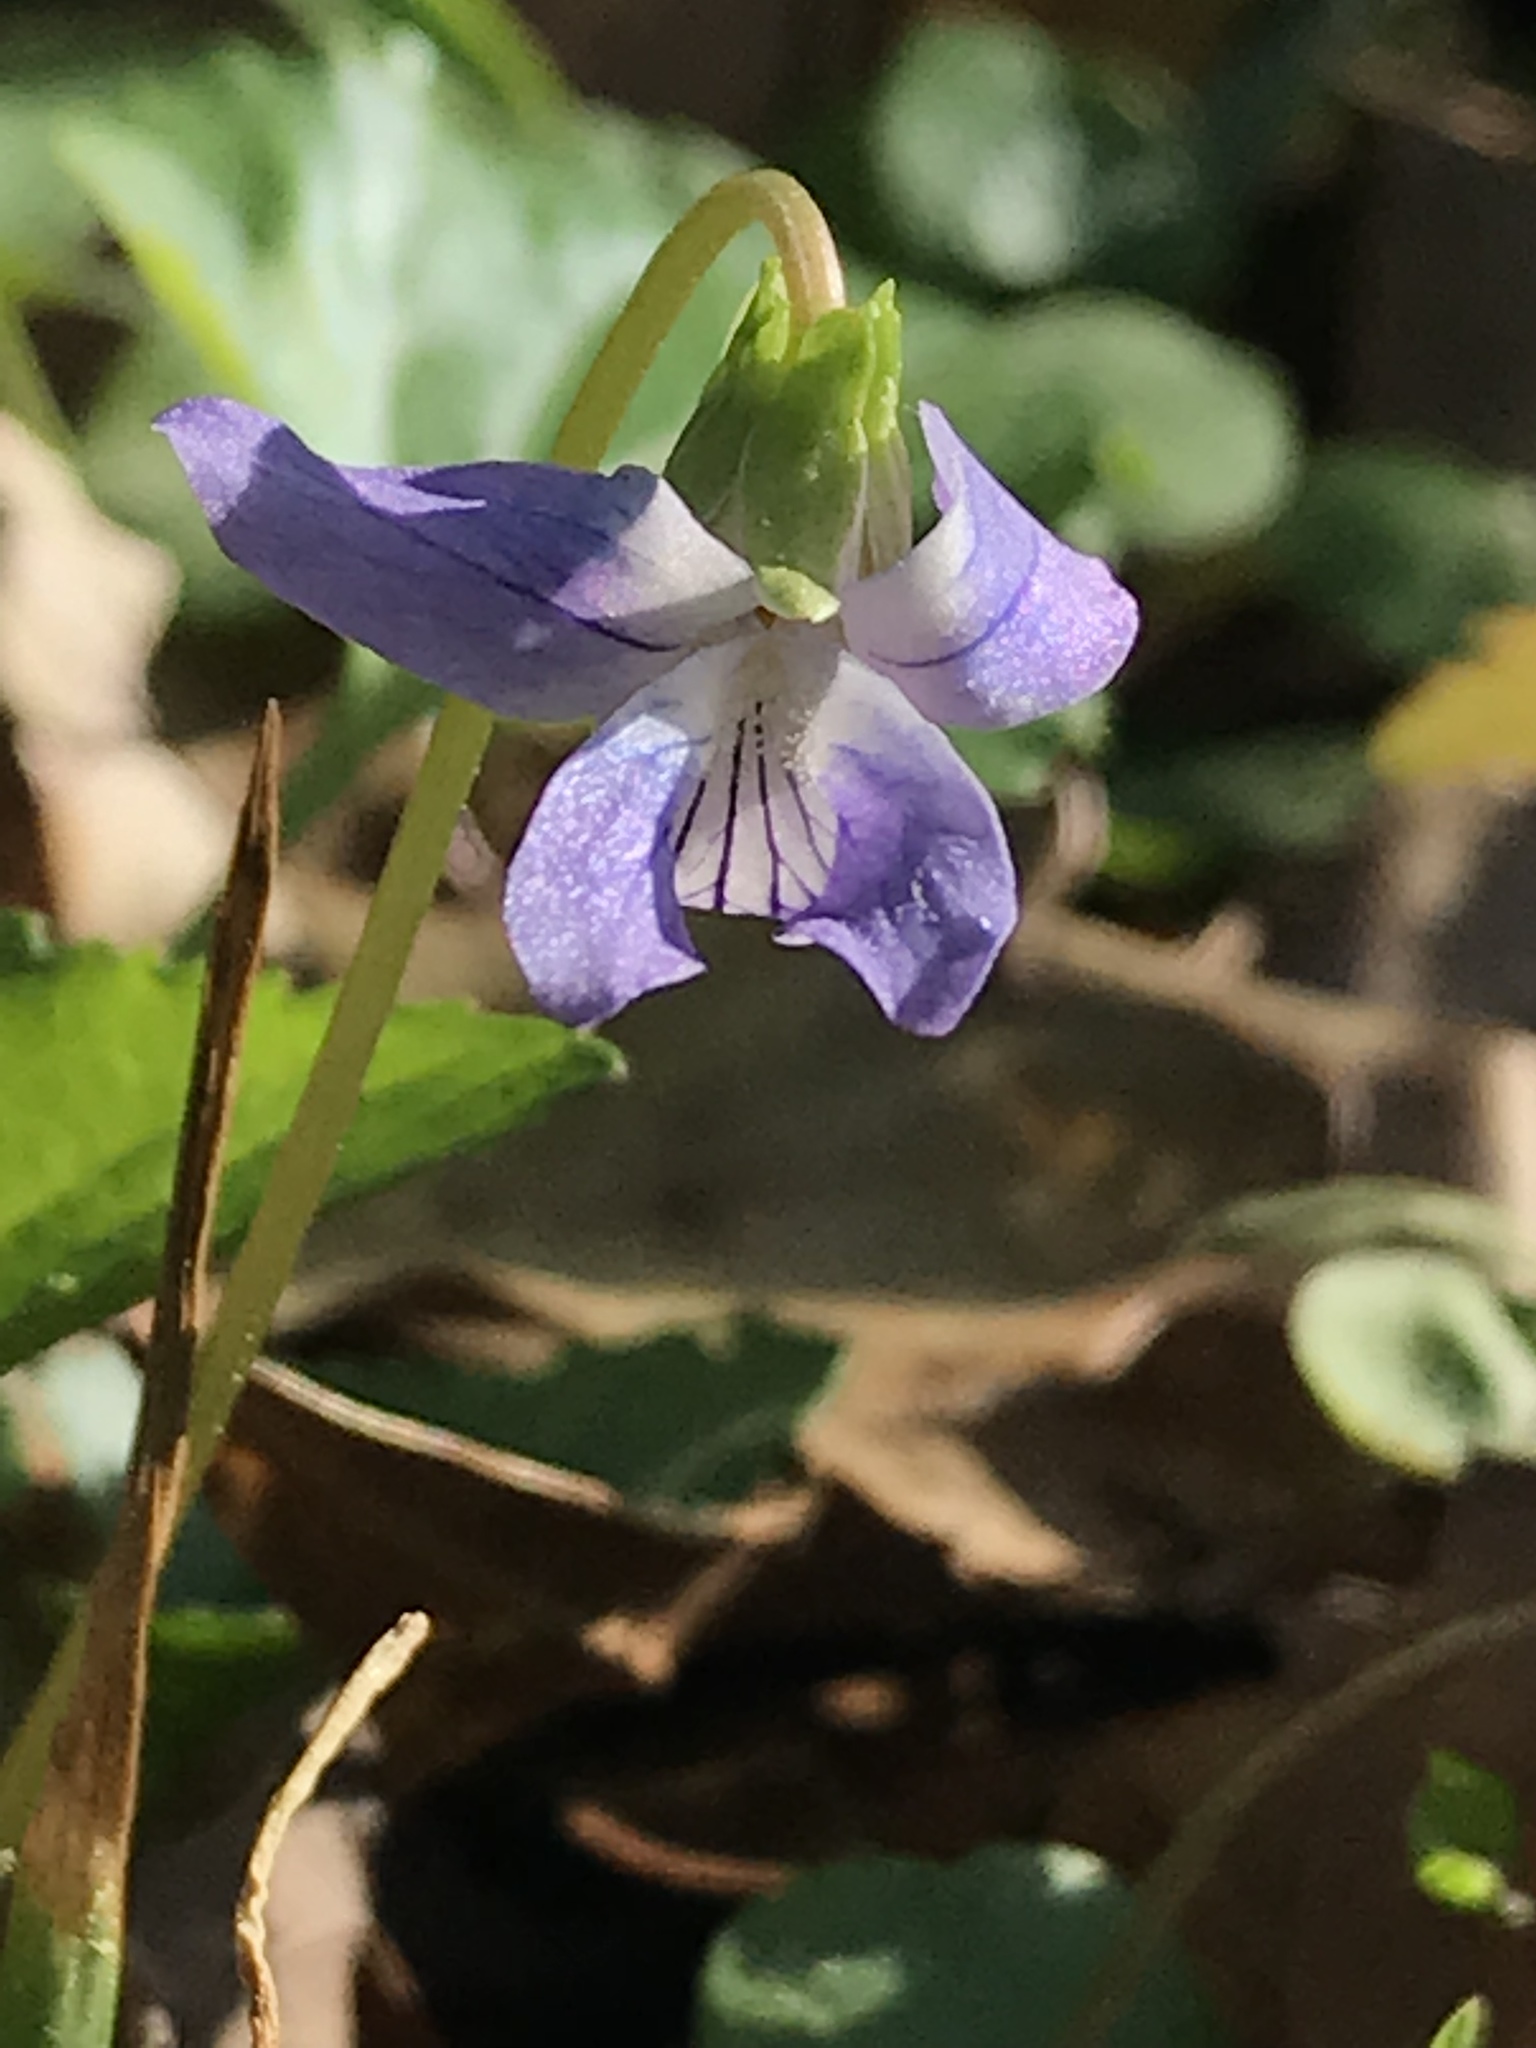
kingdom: Plantae
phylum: Tracheophyta
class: Magnoliopsida
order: Malpighiales
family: Violaceae
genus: Viola
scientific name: Viola missouriensis
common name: Missouri violet
